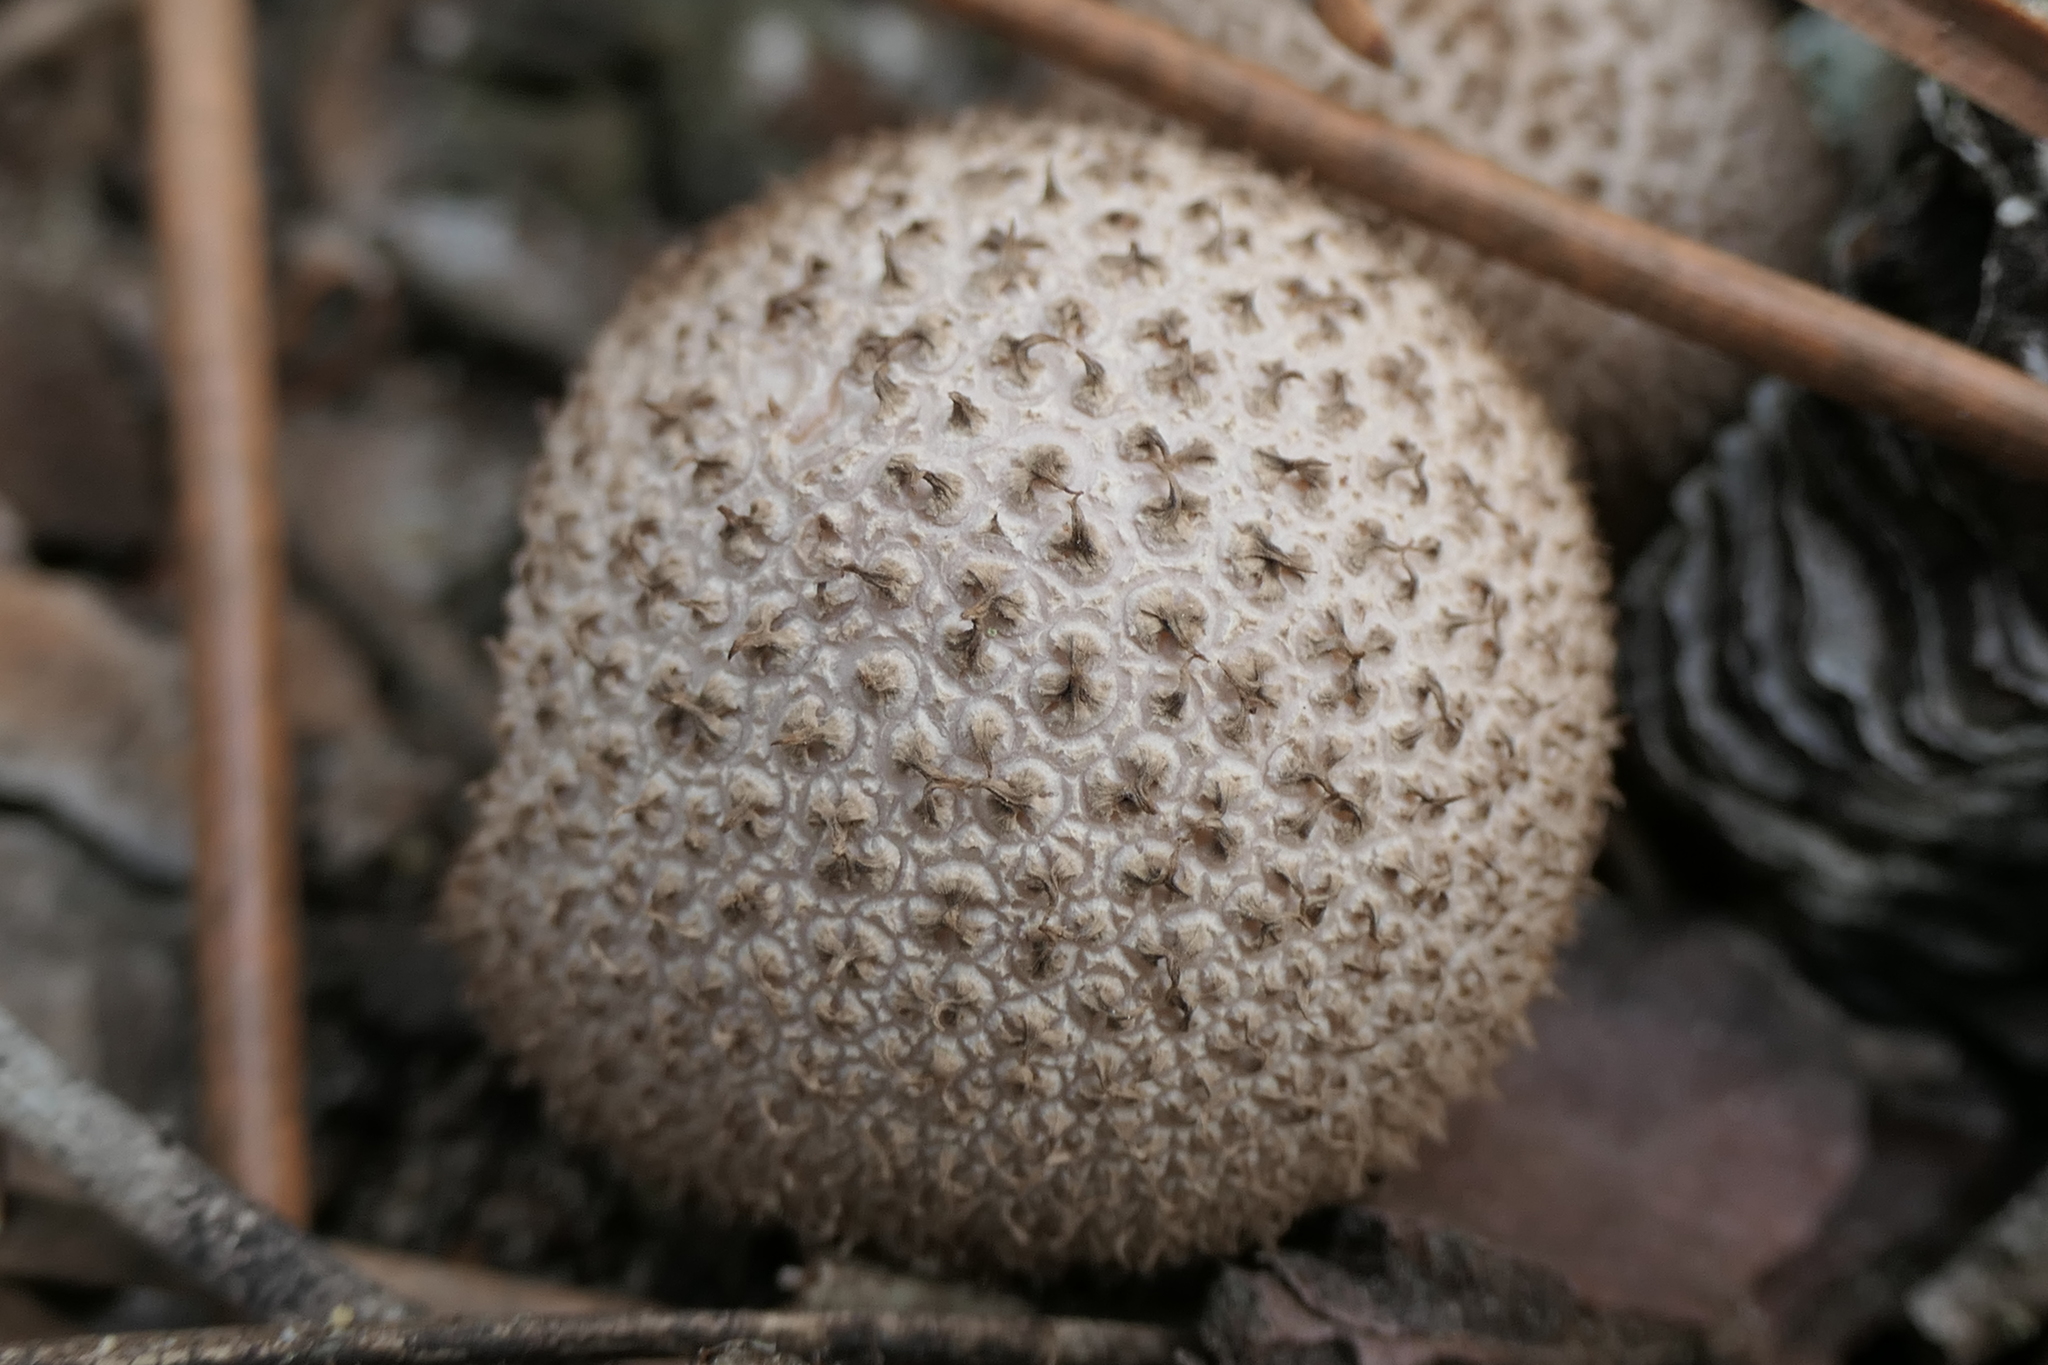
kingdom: Fungi
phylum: Basidiomycota
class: Agaricomycetes
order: Agaricales
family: Lycoperdaceae
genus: Lycoperdon
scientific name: Lycoperdon perlatum
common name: Common puffball
